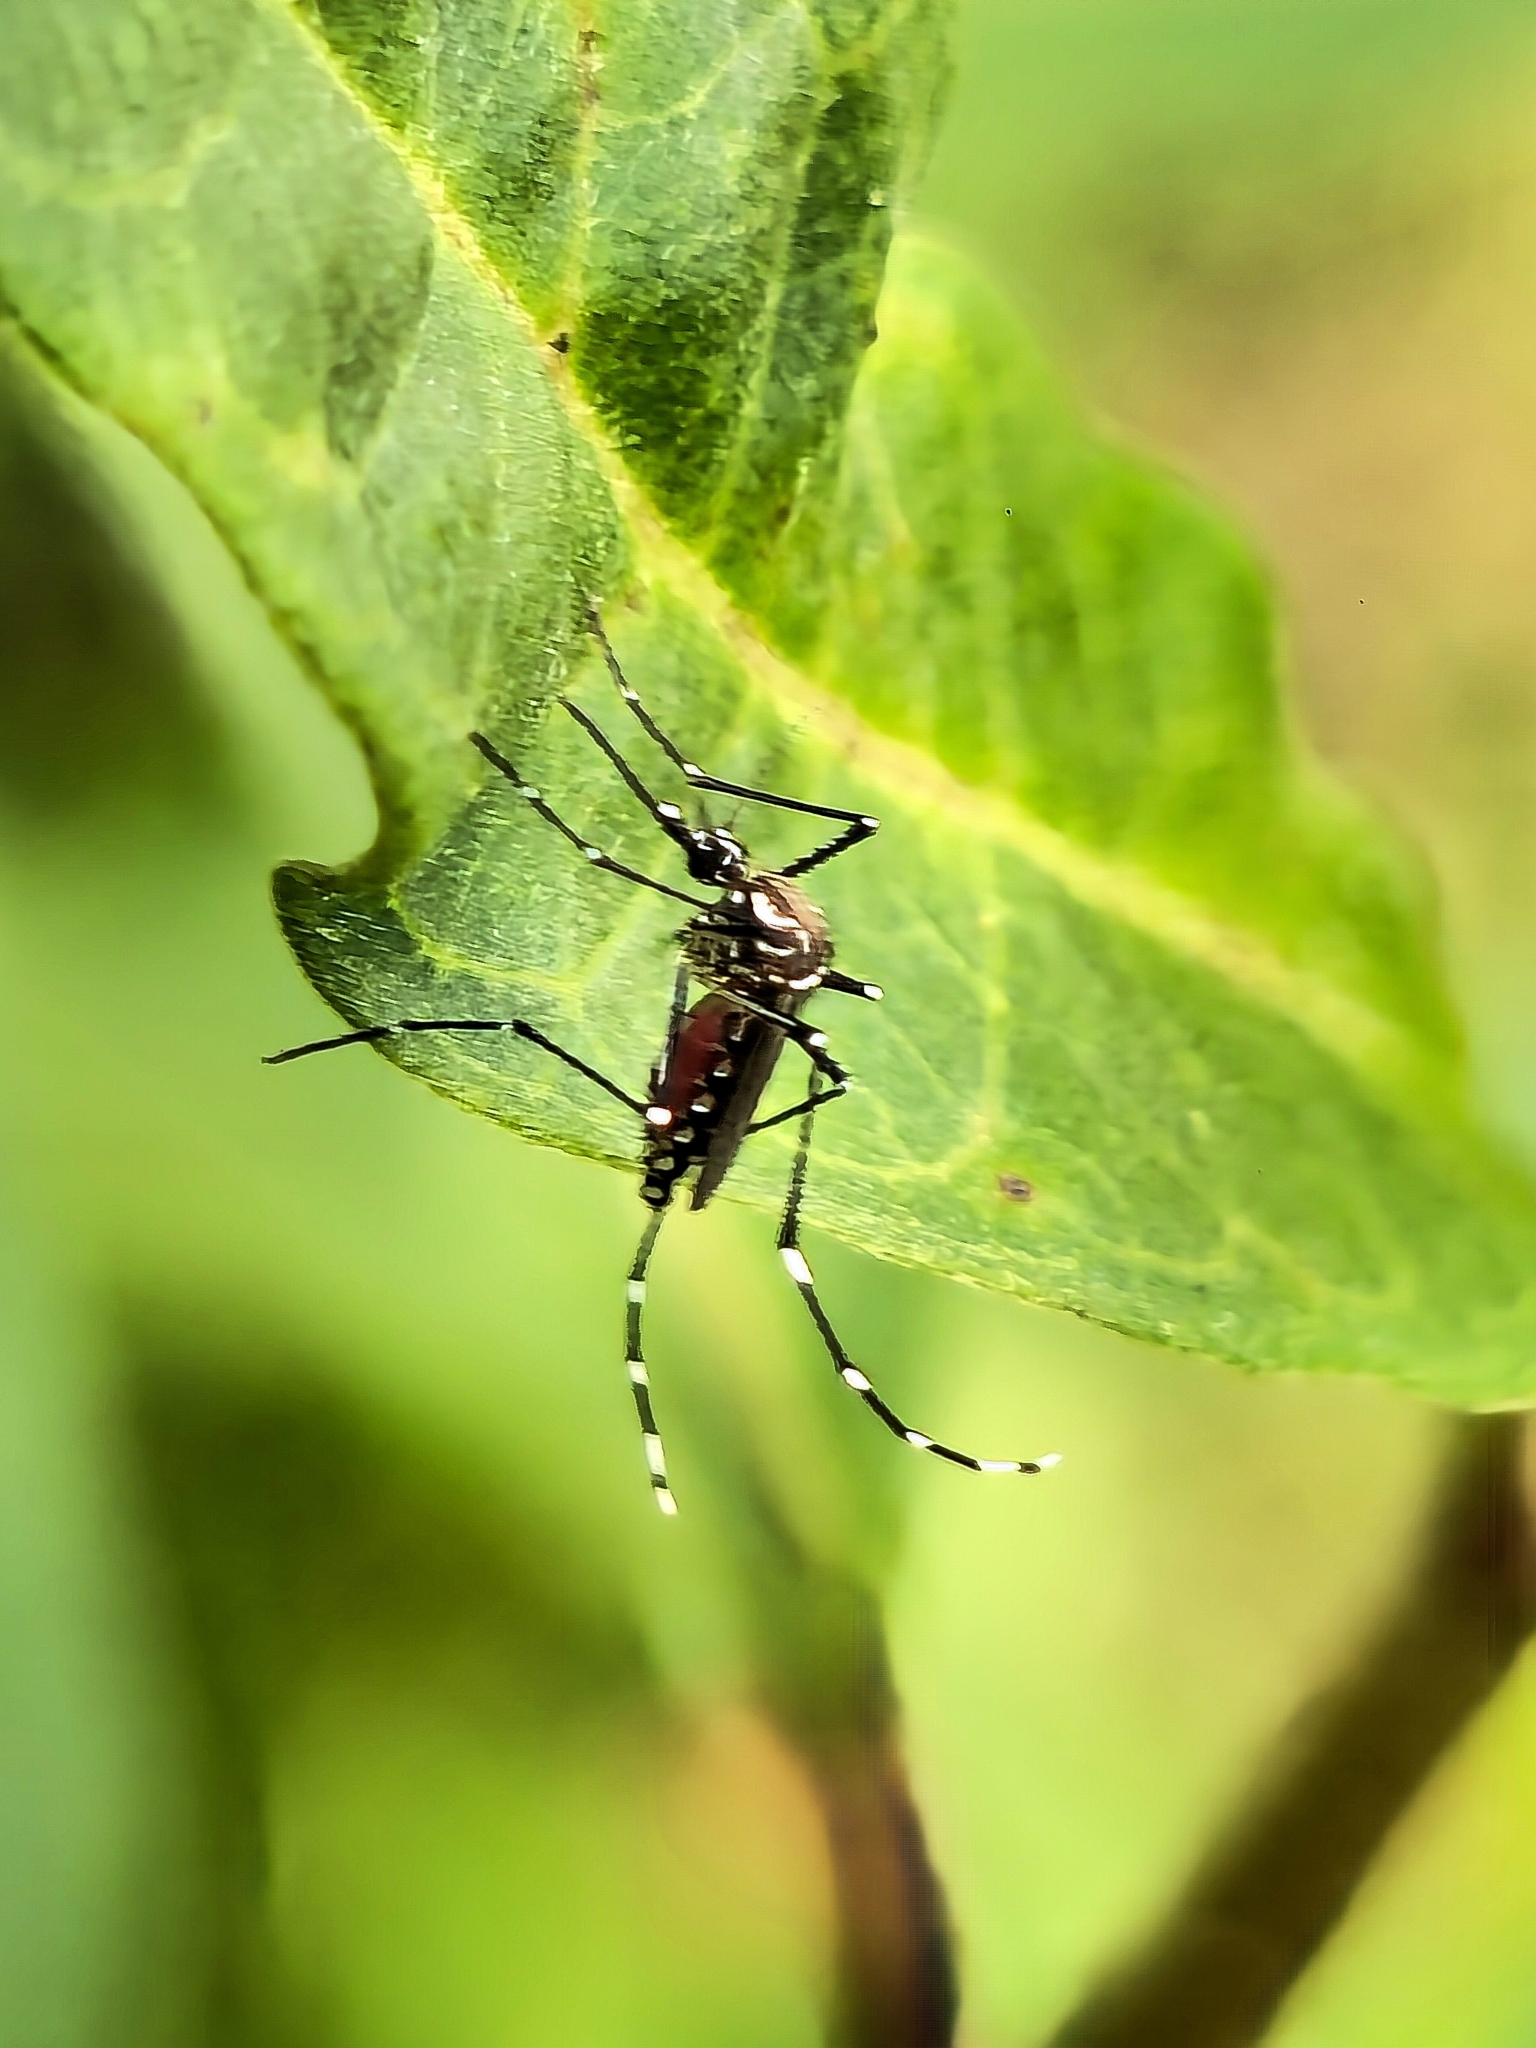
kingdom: Animalia
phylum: Arthropoda
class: Insecta
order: Diptera
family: Culicidae
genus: Aedes
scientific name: Aedes aegypti
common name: Yellow fever mosquito
